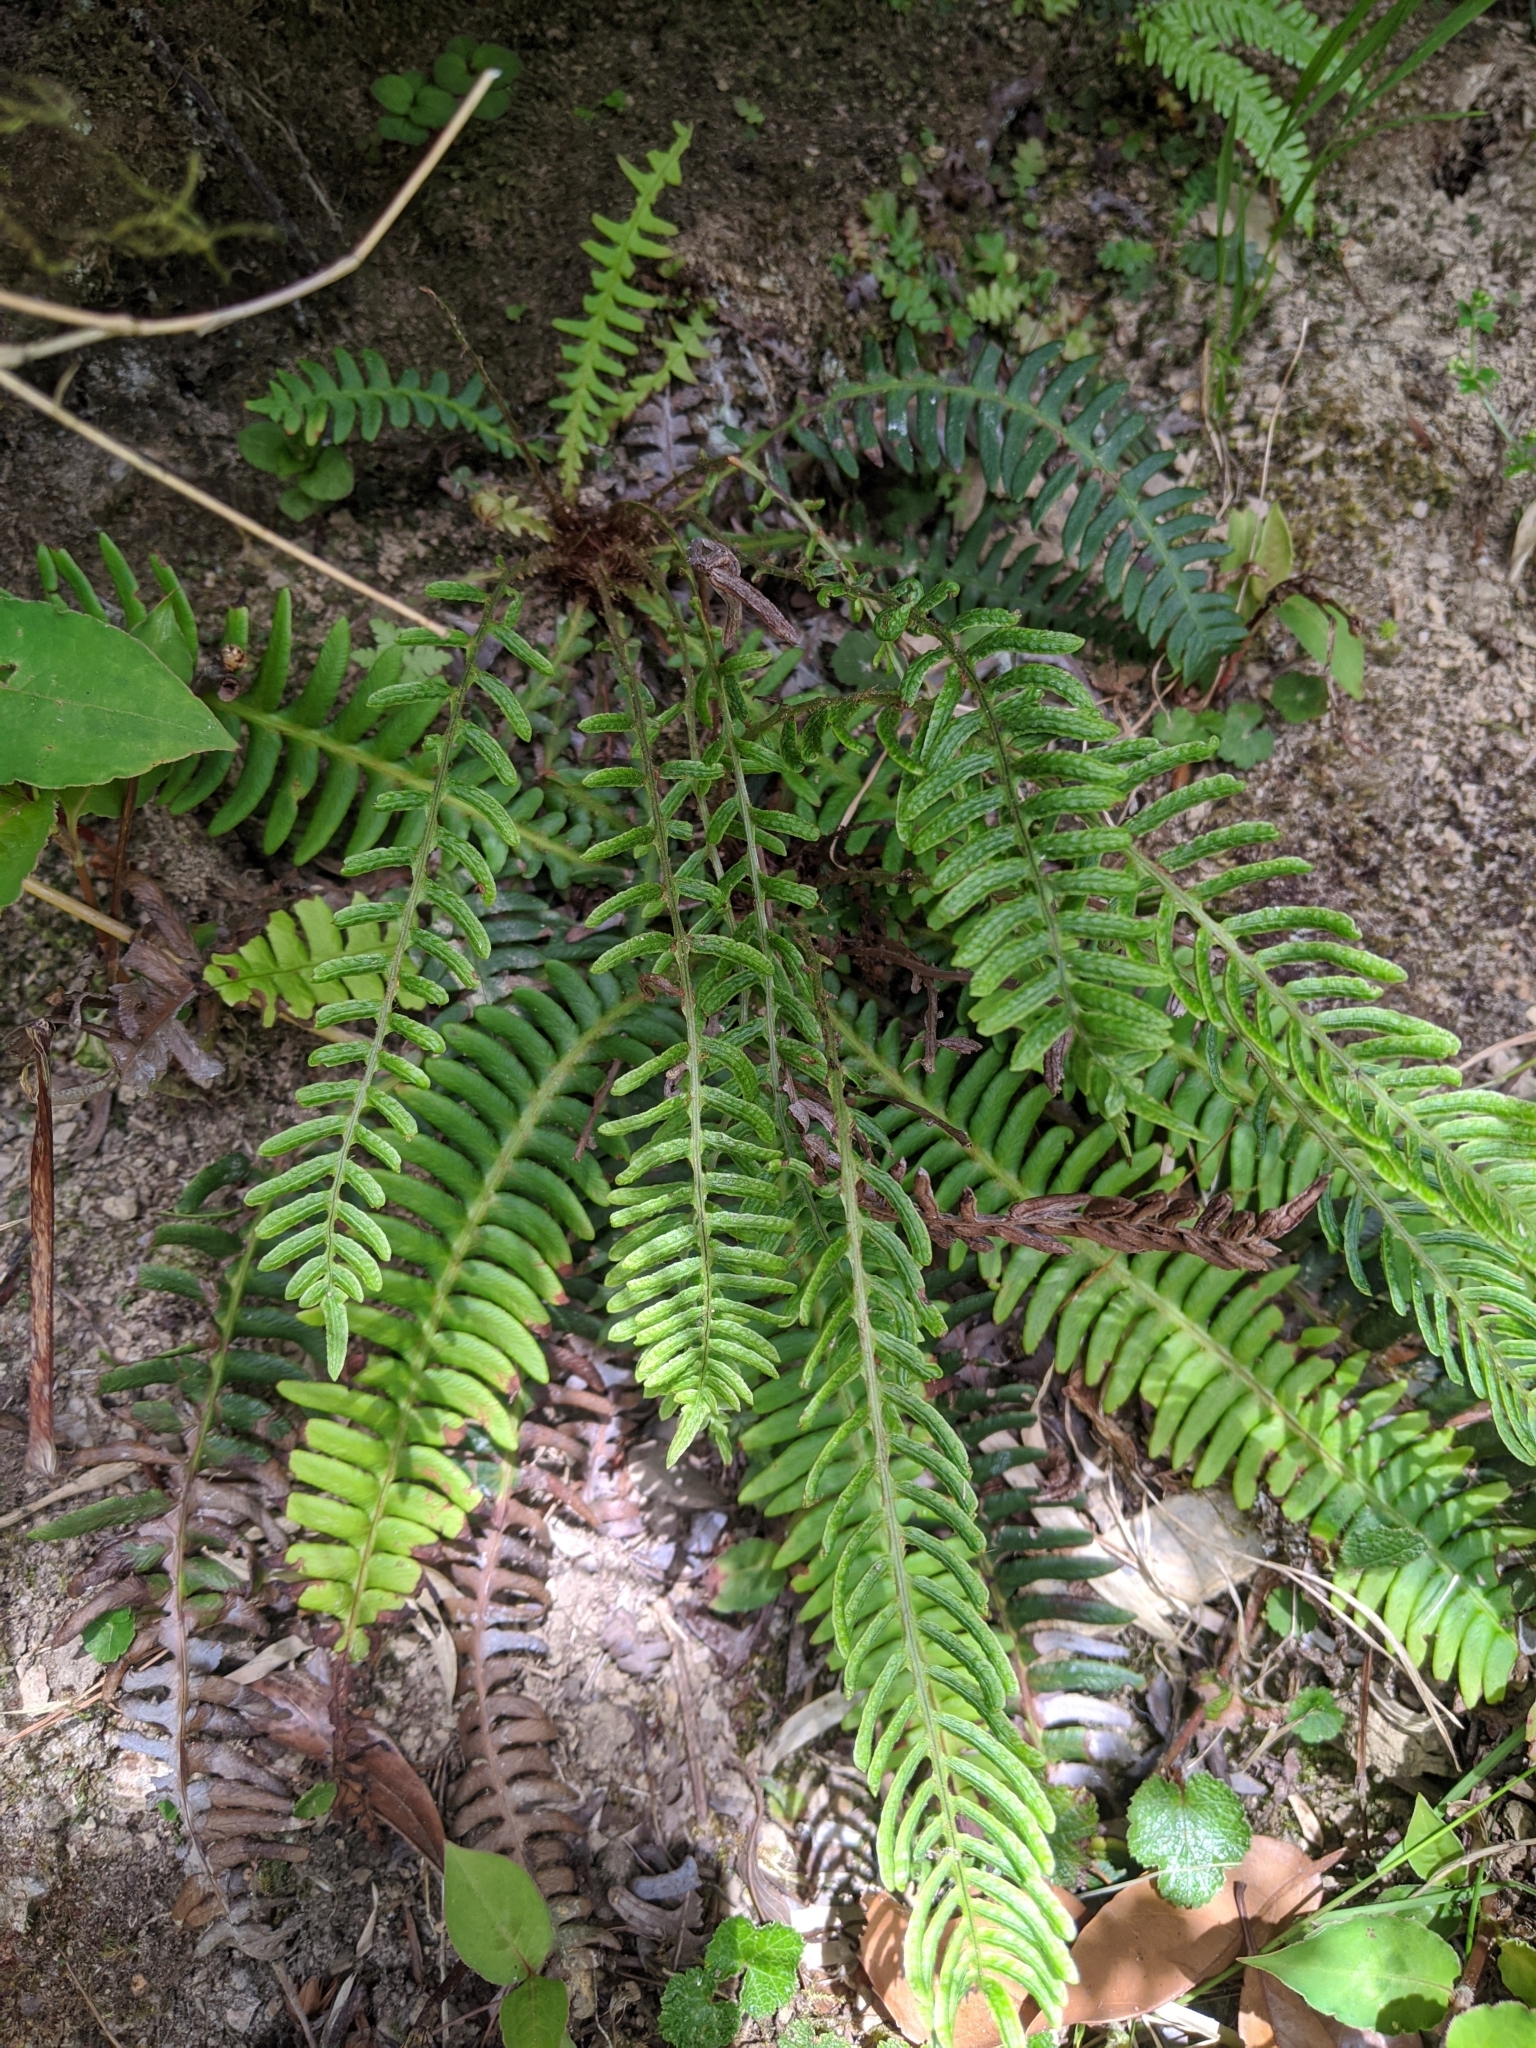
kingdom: Plantae
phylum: Tracheophyta
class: Polypodiopsida
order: Polypodiales
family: Blechnaceae
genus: Spicantopsis
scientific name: Spicantopsis hancockii
